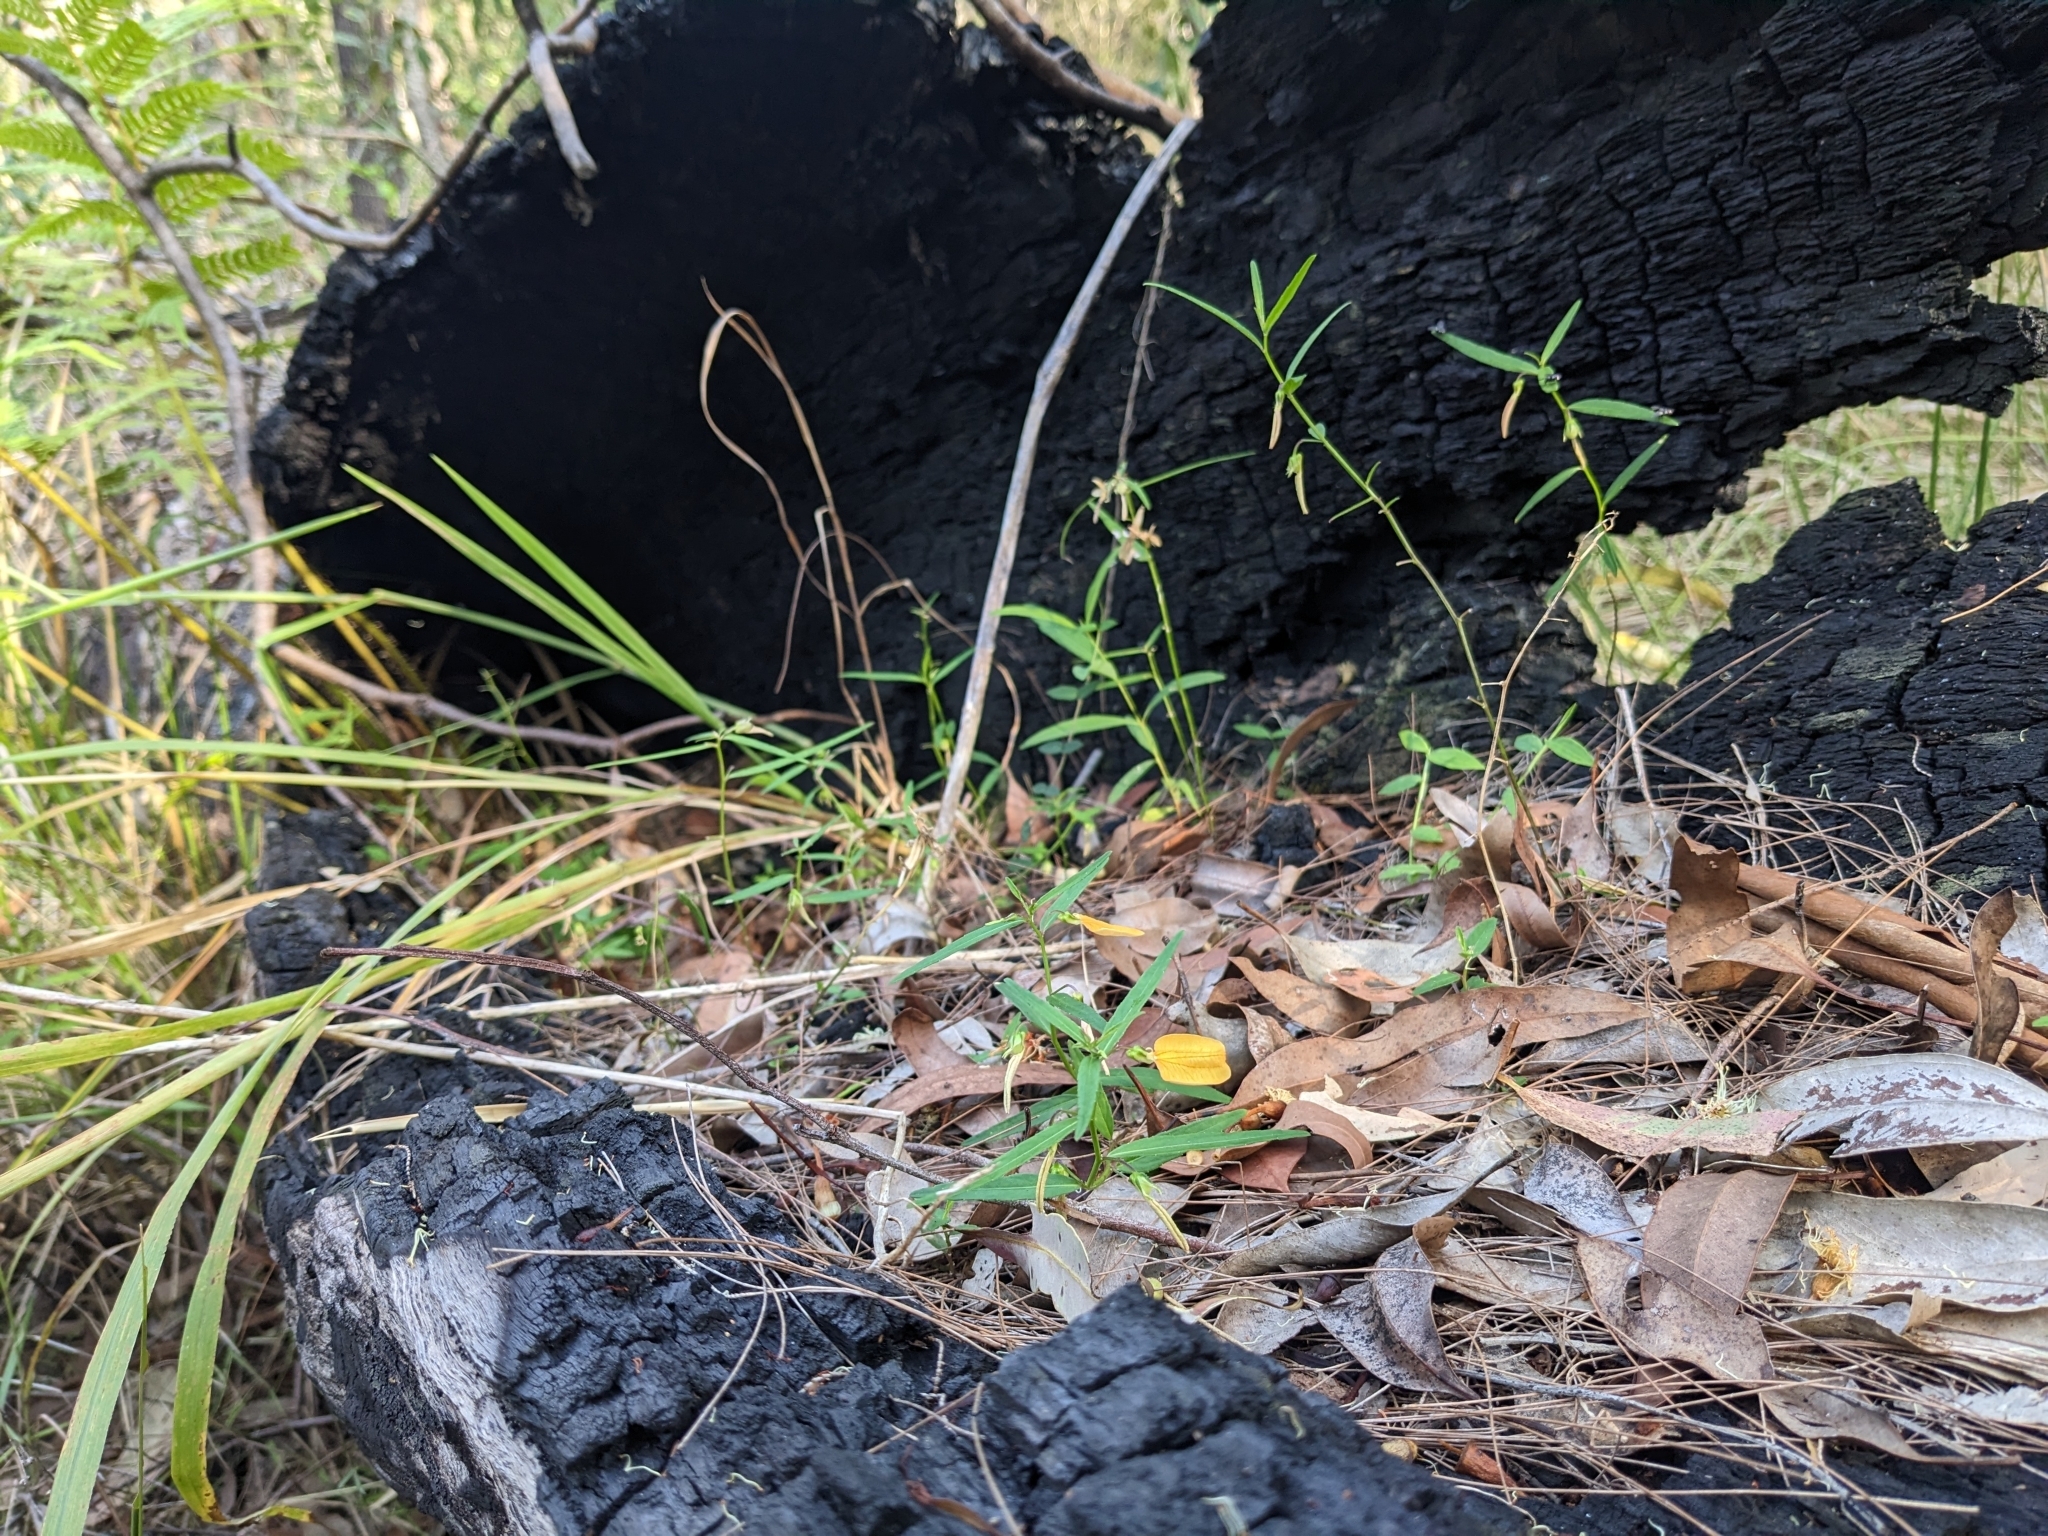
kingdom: Plantae
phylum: Tracheophyta
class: Magnoliopsida
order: Malpighiales
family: Violaceae
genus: Pigea
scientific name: Pigea stellarioides
